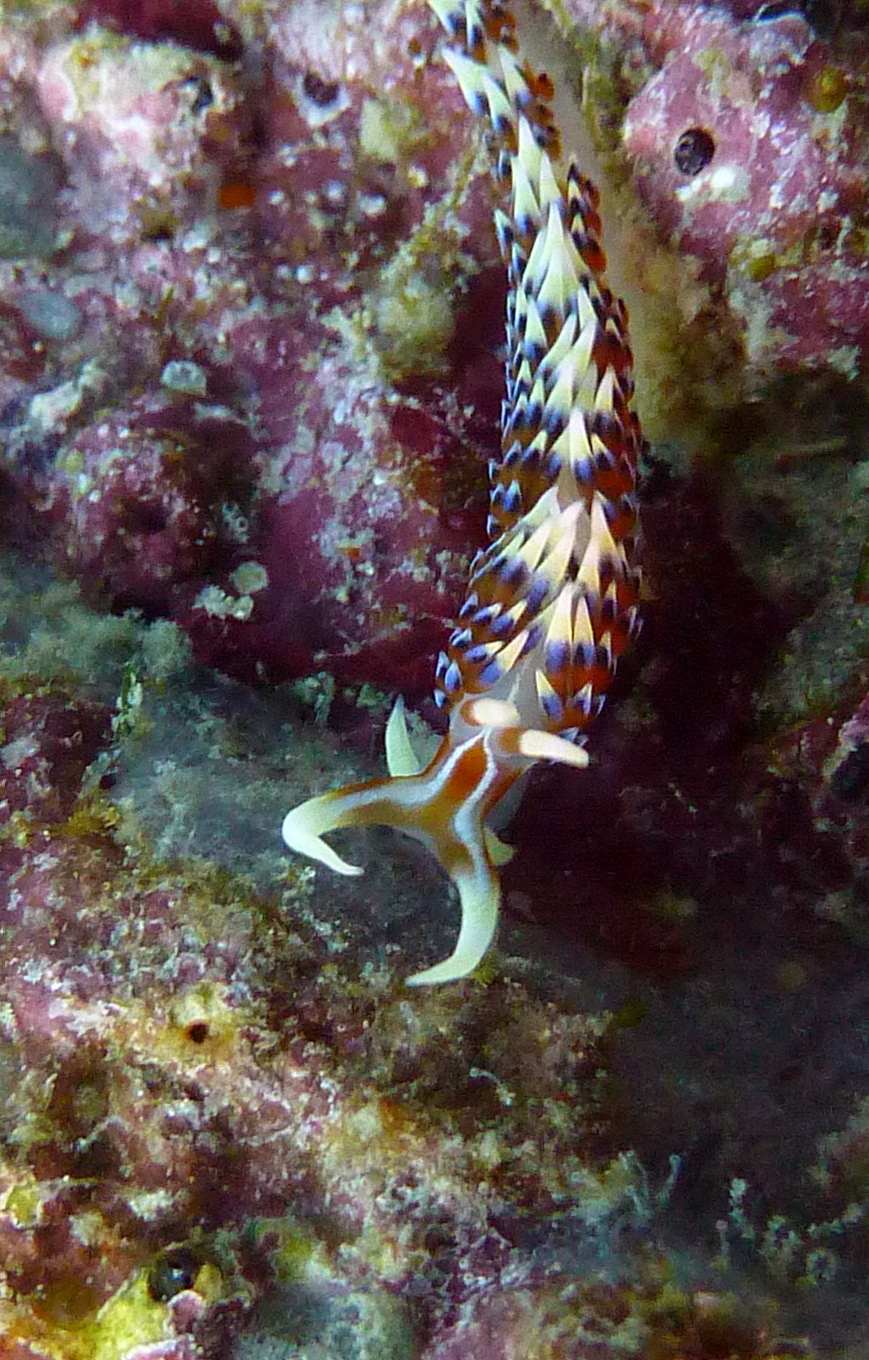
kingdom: Animalia
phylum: Mollusca
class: Gastropoda
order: Nudibranchia
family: Facelinidae
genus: Caloria
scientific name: Caloria indica
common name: Sea slug
